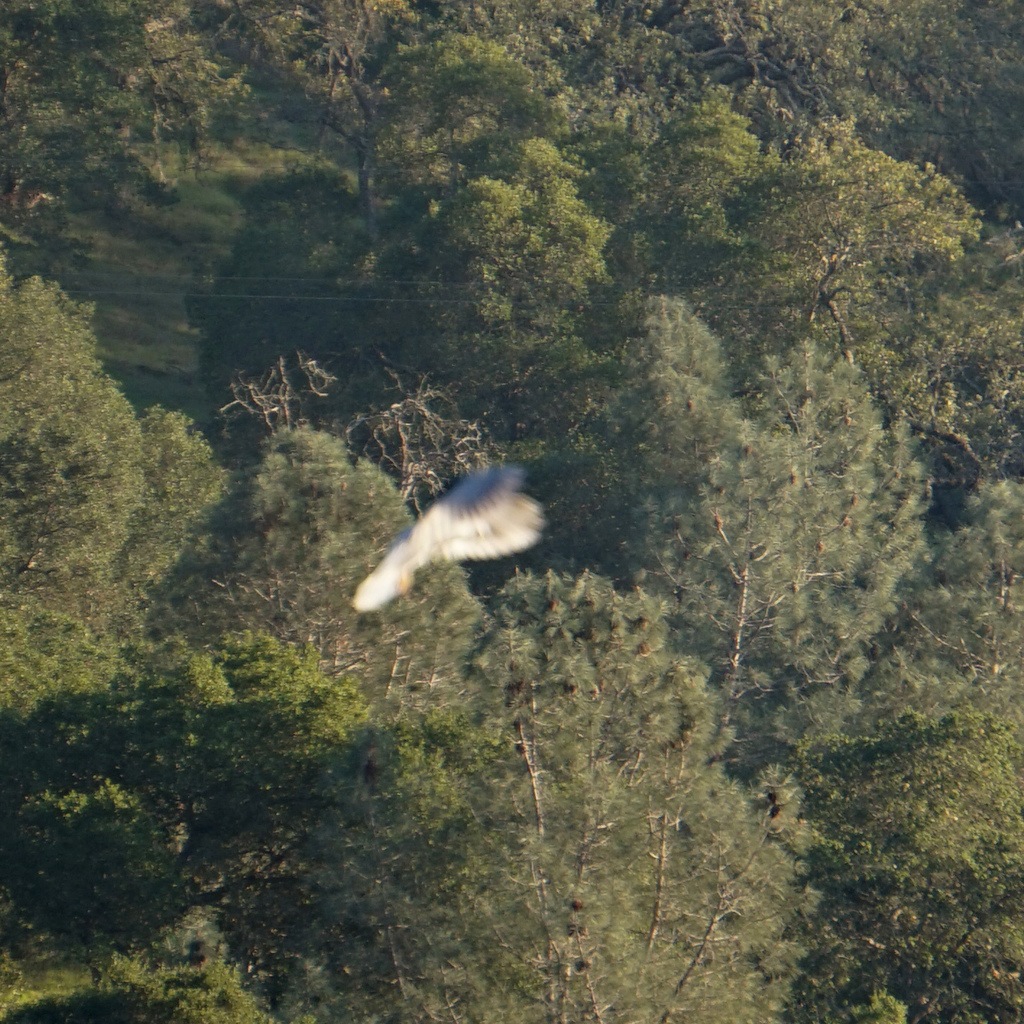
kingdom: Animalia
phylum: Chordata
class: Aves
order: Accipitriformes
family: Accipitridae
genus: Elanus
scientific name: Elanus leucurus
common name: White-tailed kite
